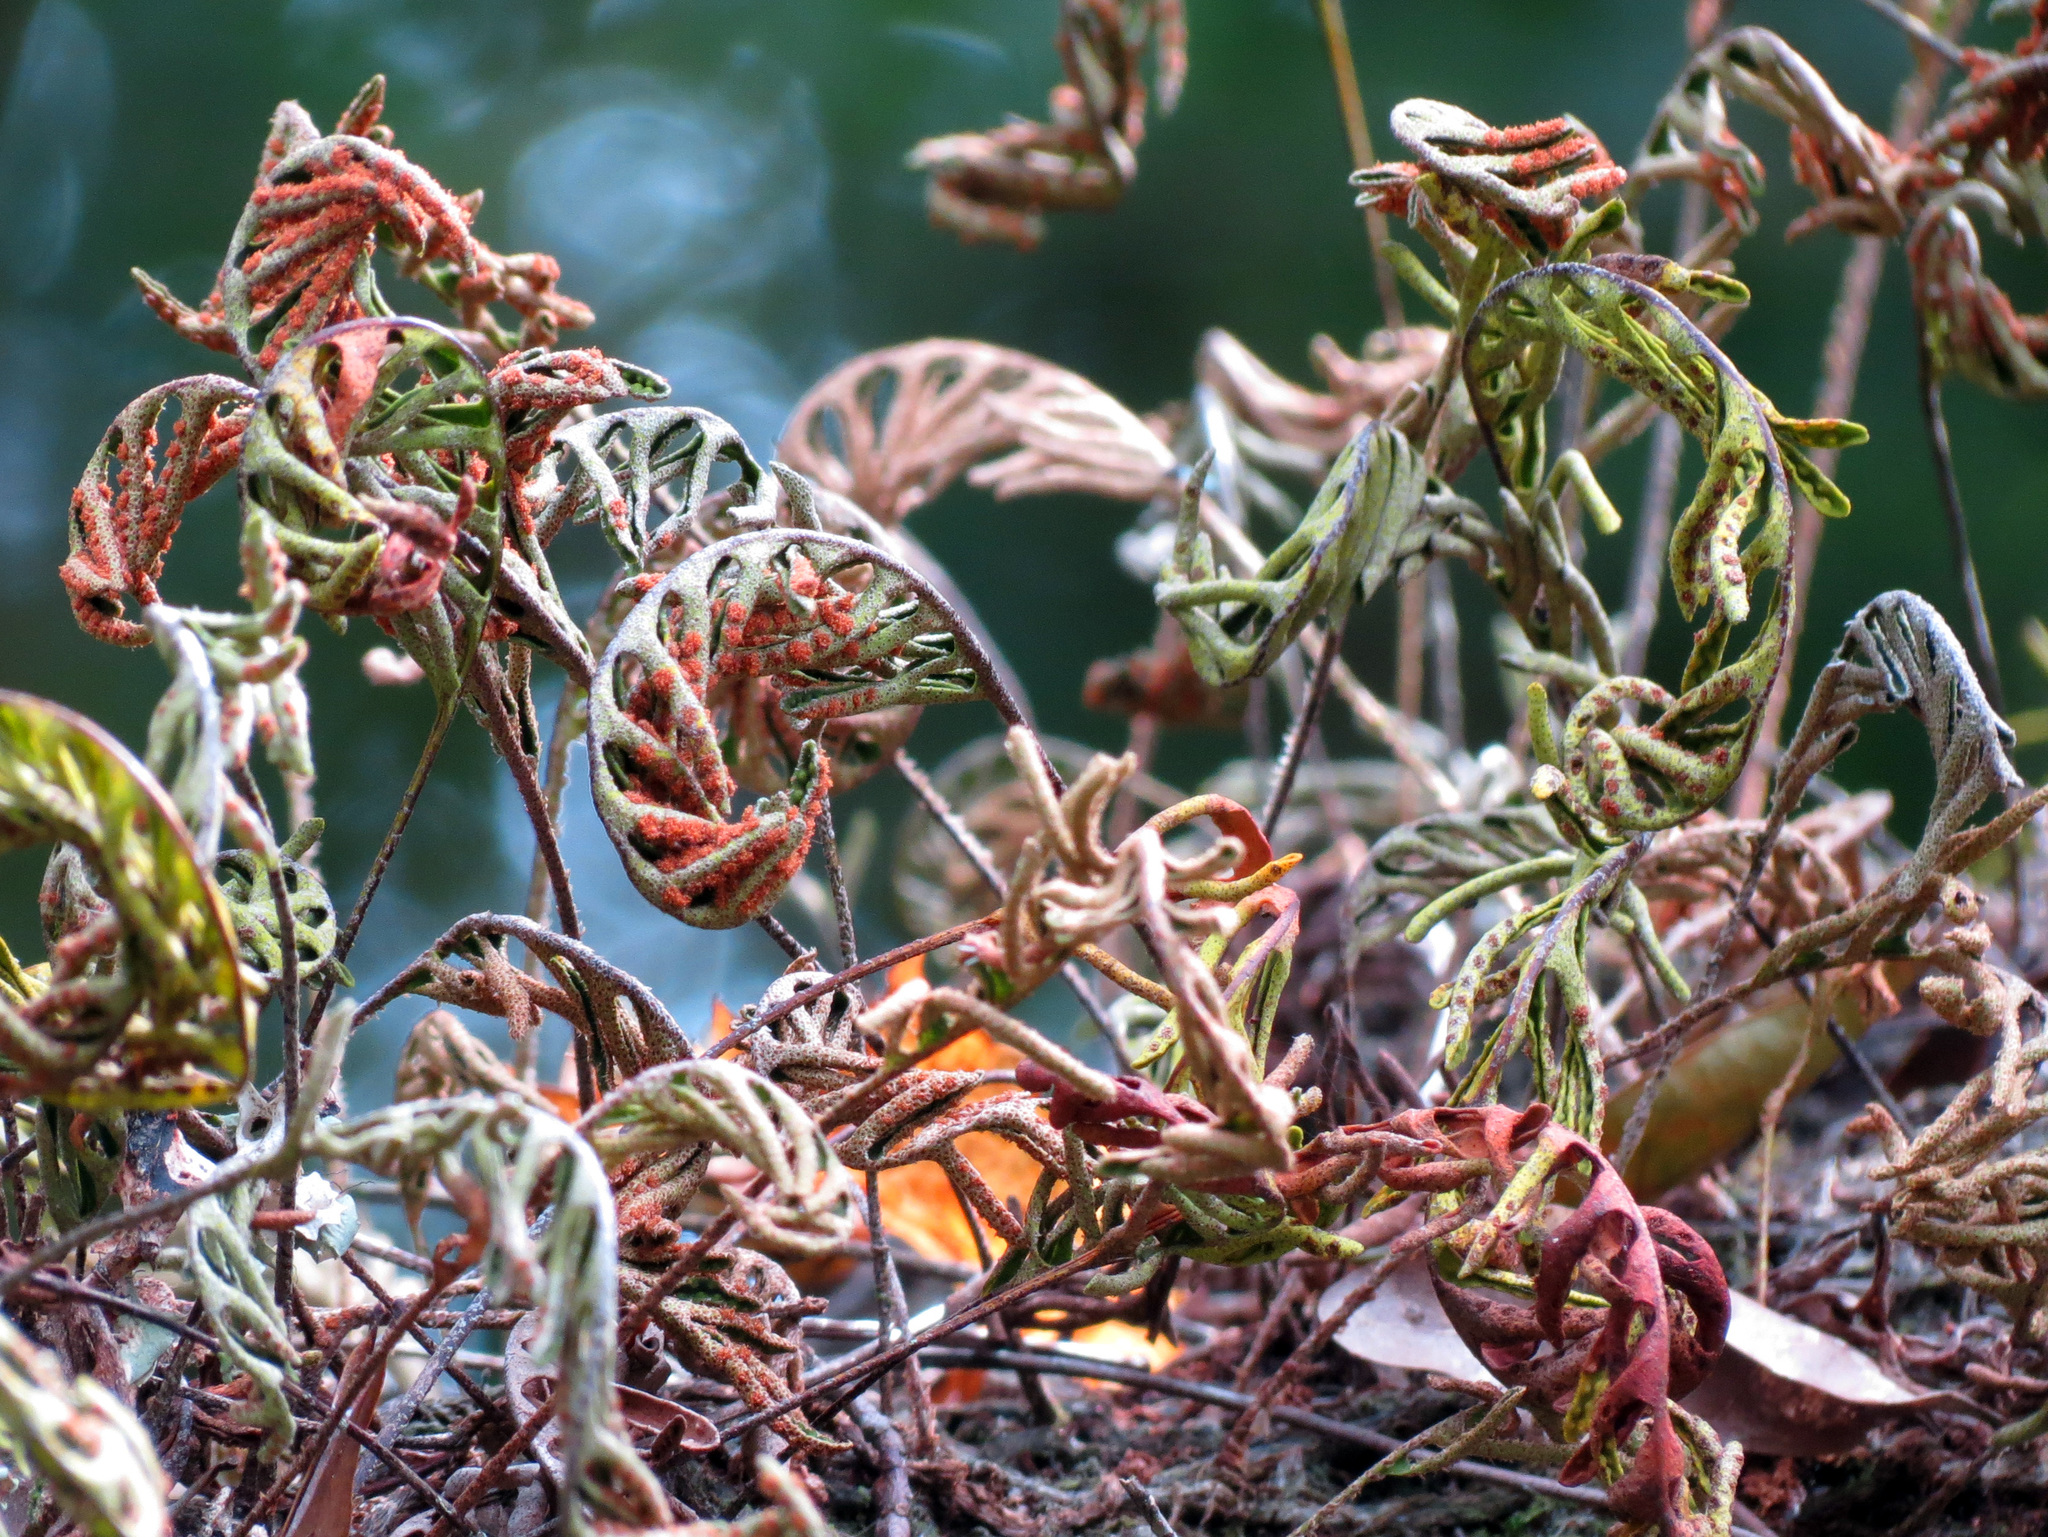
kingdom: Plantae
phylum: Tracheophyta
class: Polypodiopsida
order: Polypodiales
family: Polypodiaceae
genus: Pleopeltis
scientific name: Pleopeltis michauxiana
